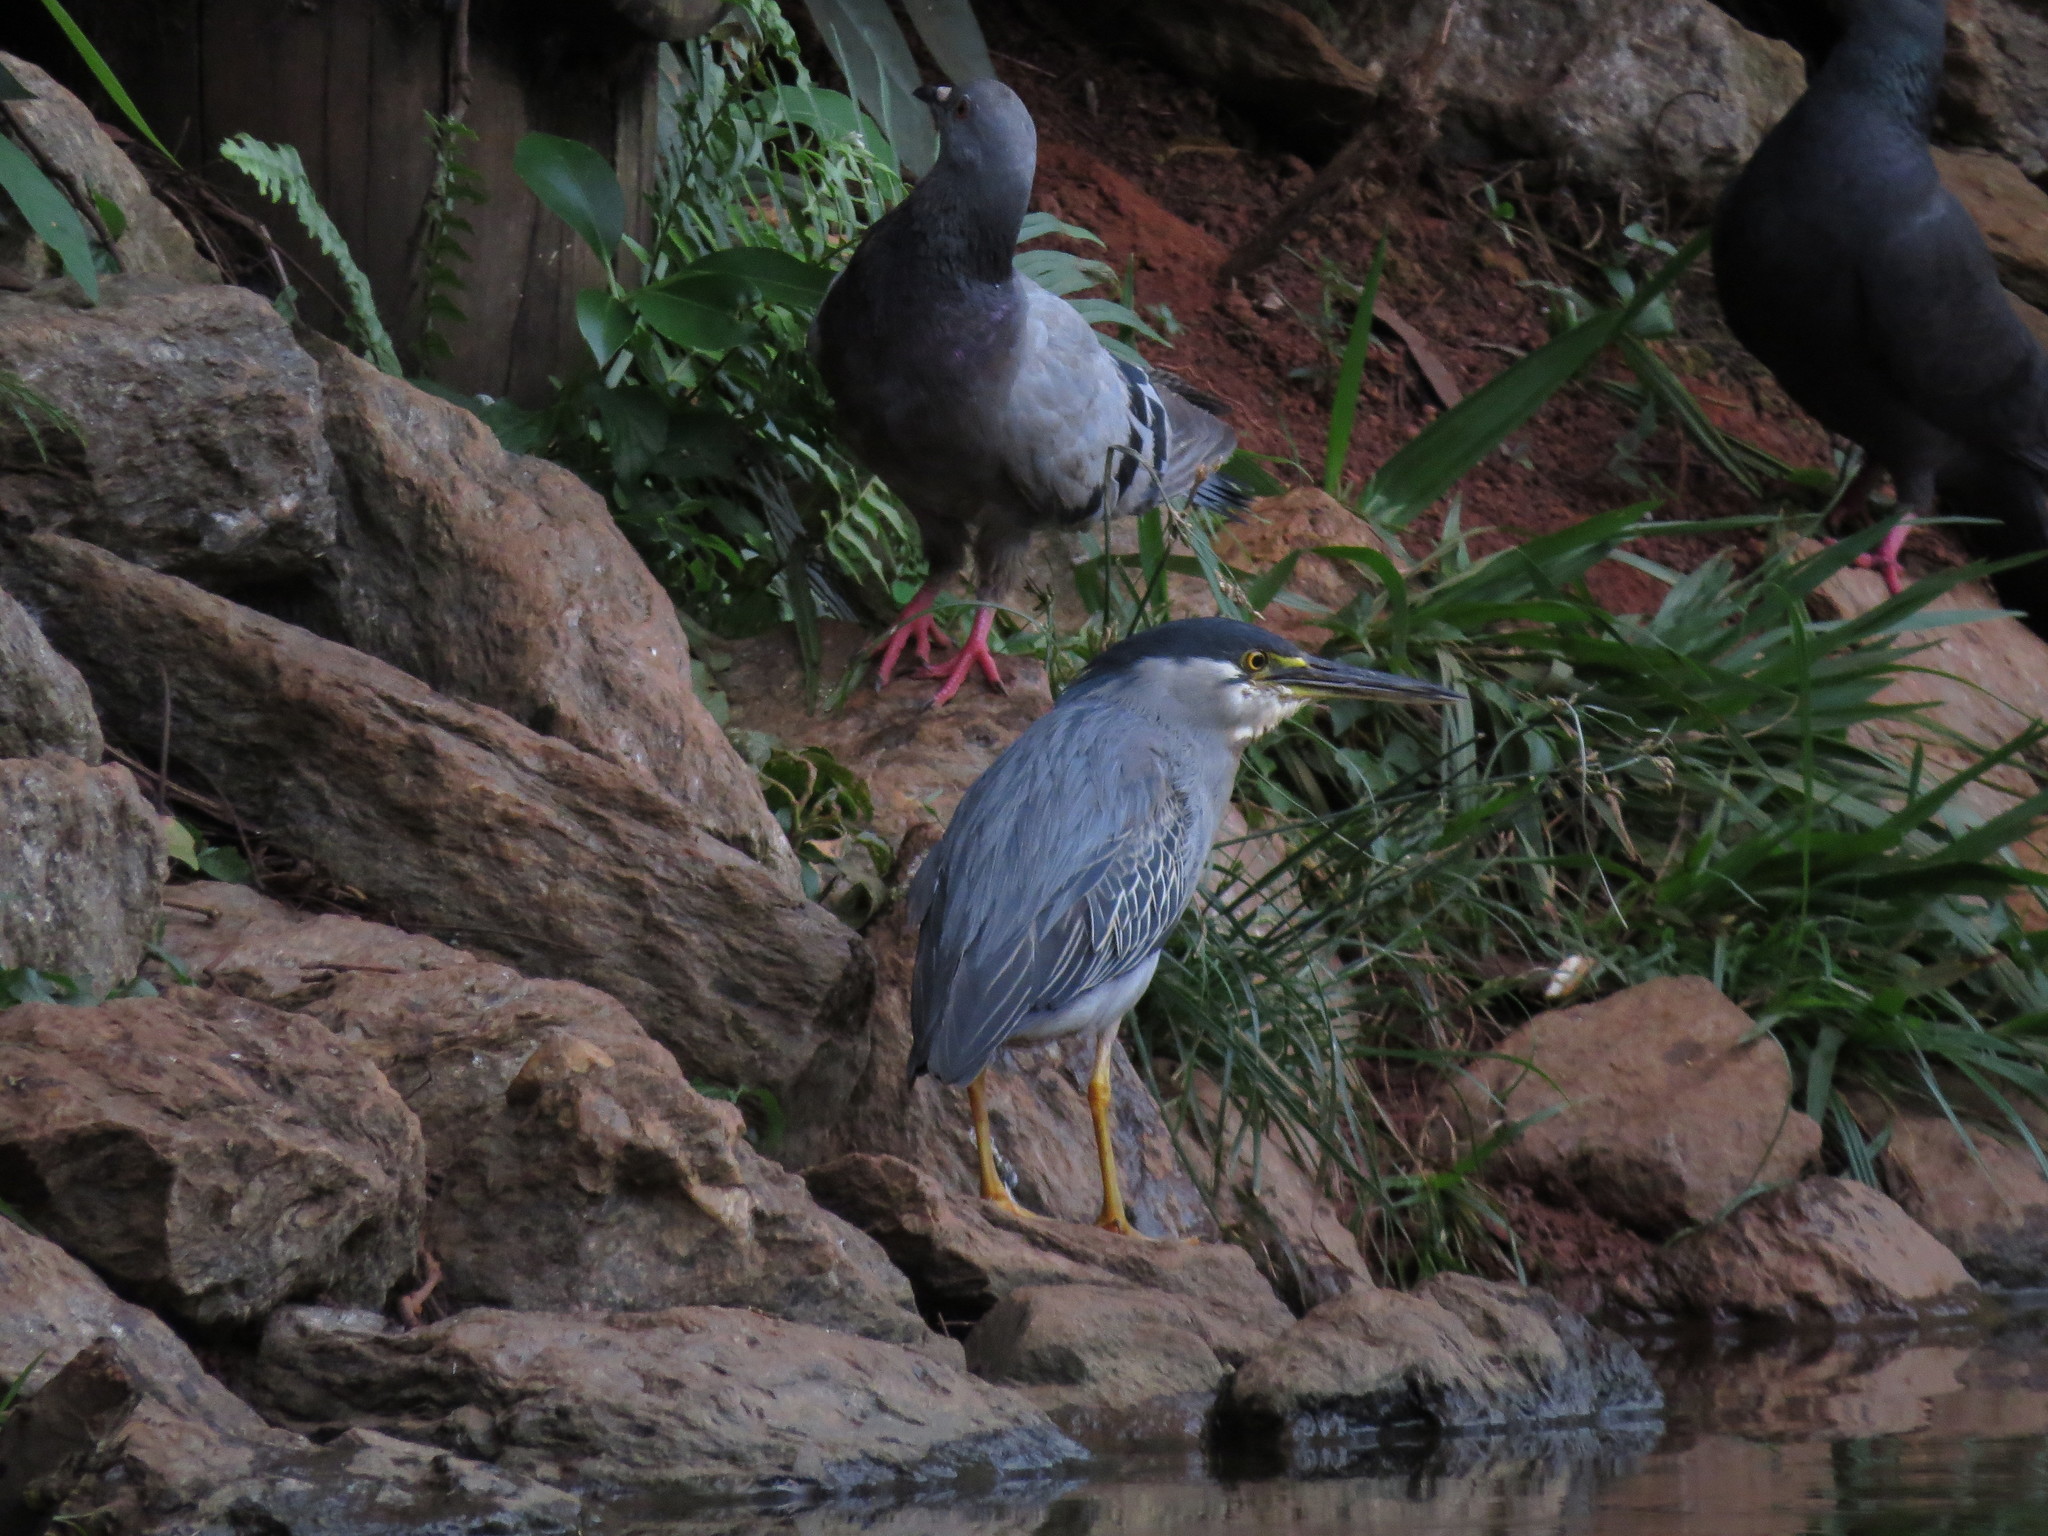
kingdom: Animalia
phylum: Chordata
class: Aves
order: Pelecaniformes
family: Ardeidae
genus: Butorides
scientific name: Butorides striata
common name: Striated heron
